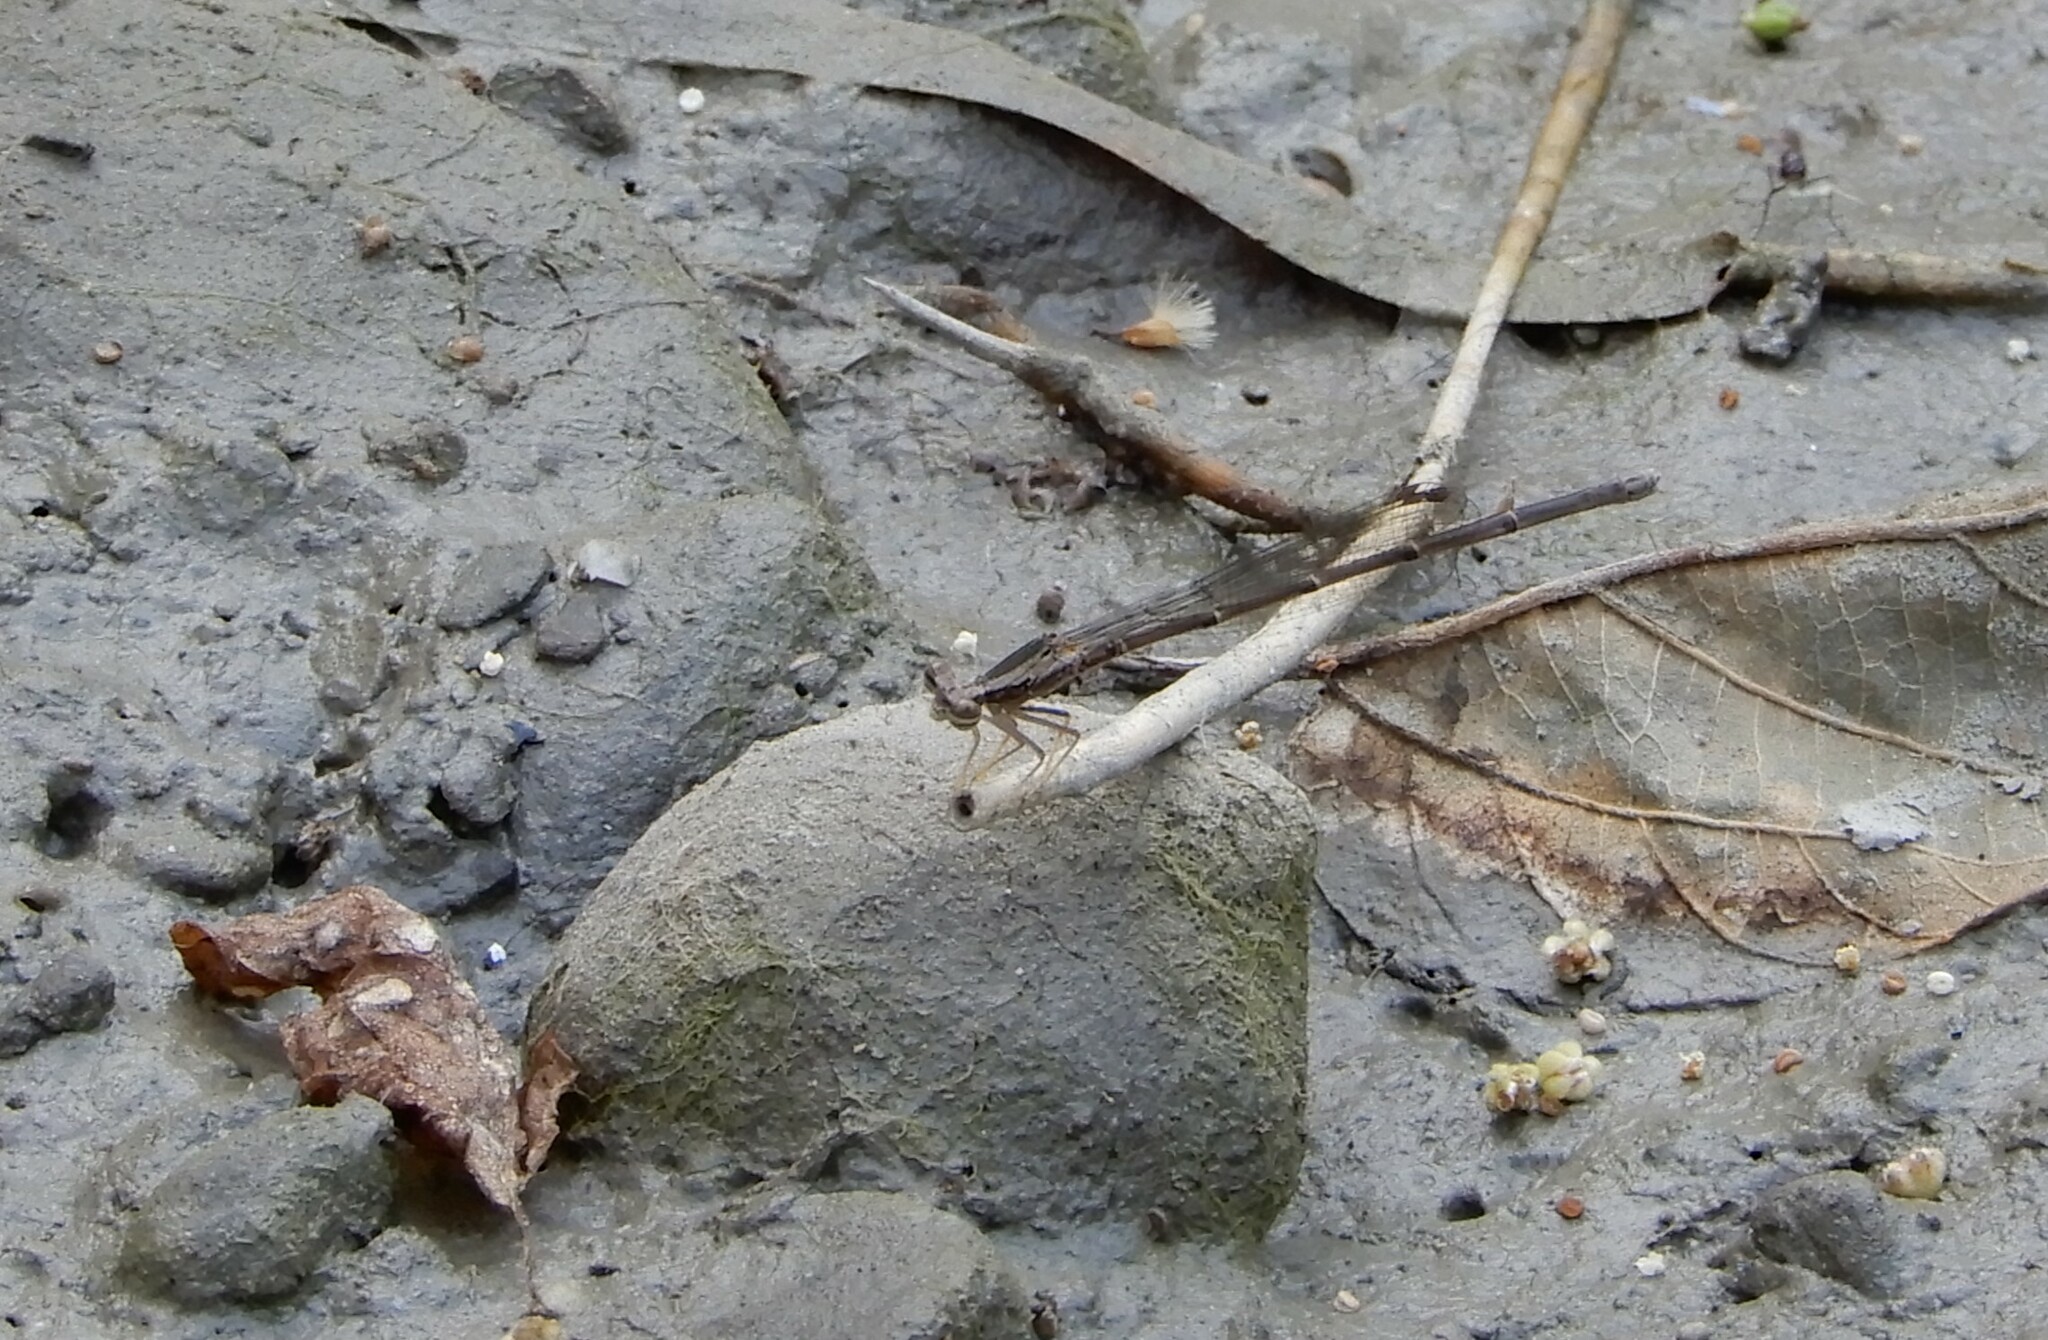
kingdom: Animalia
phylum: Arthropoda
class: Insecta
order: Odonata
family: Platycnemididae
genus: Copera
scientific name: Copera marginipes
